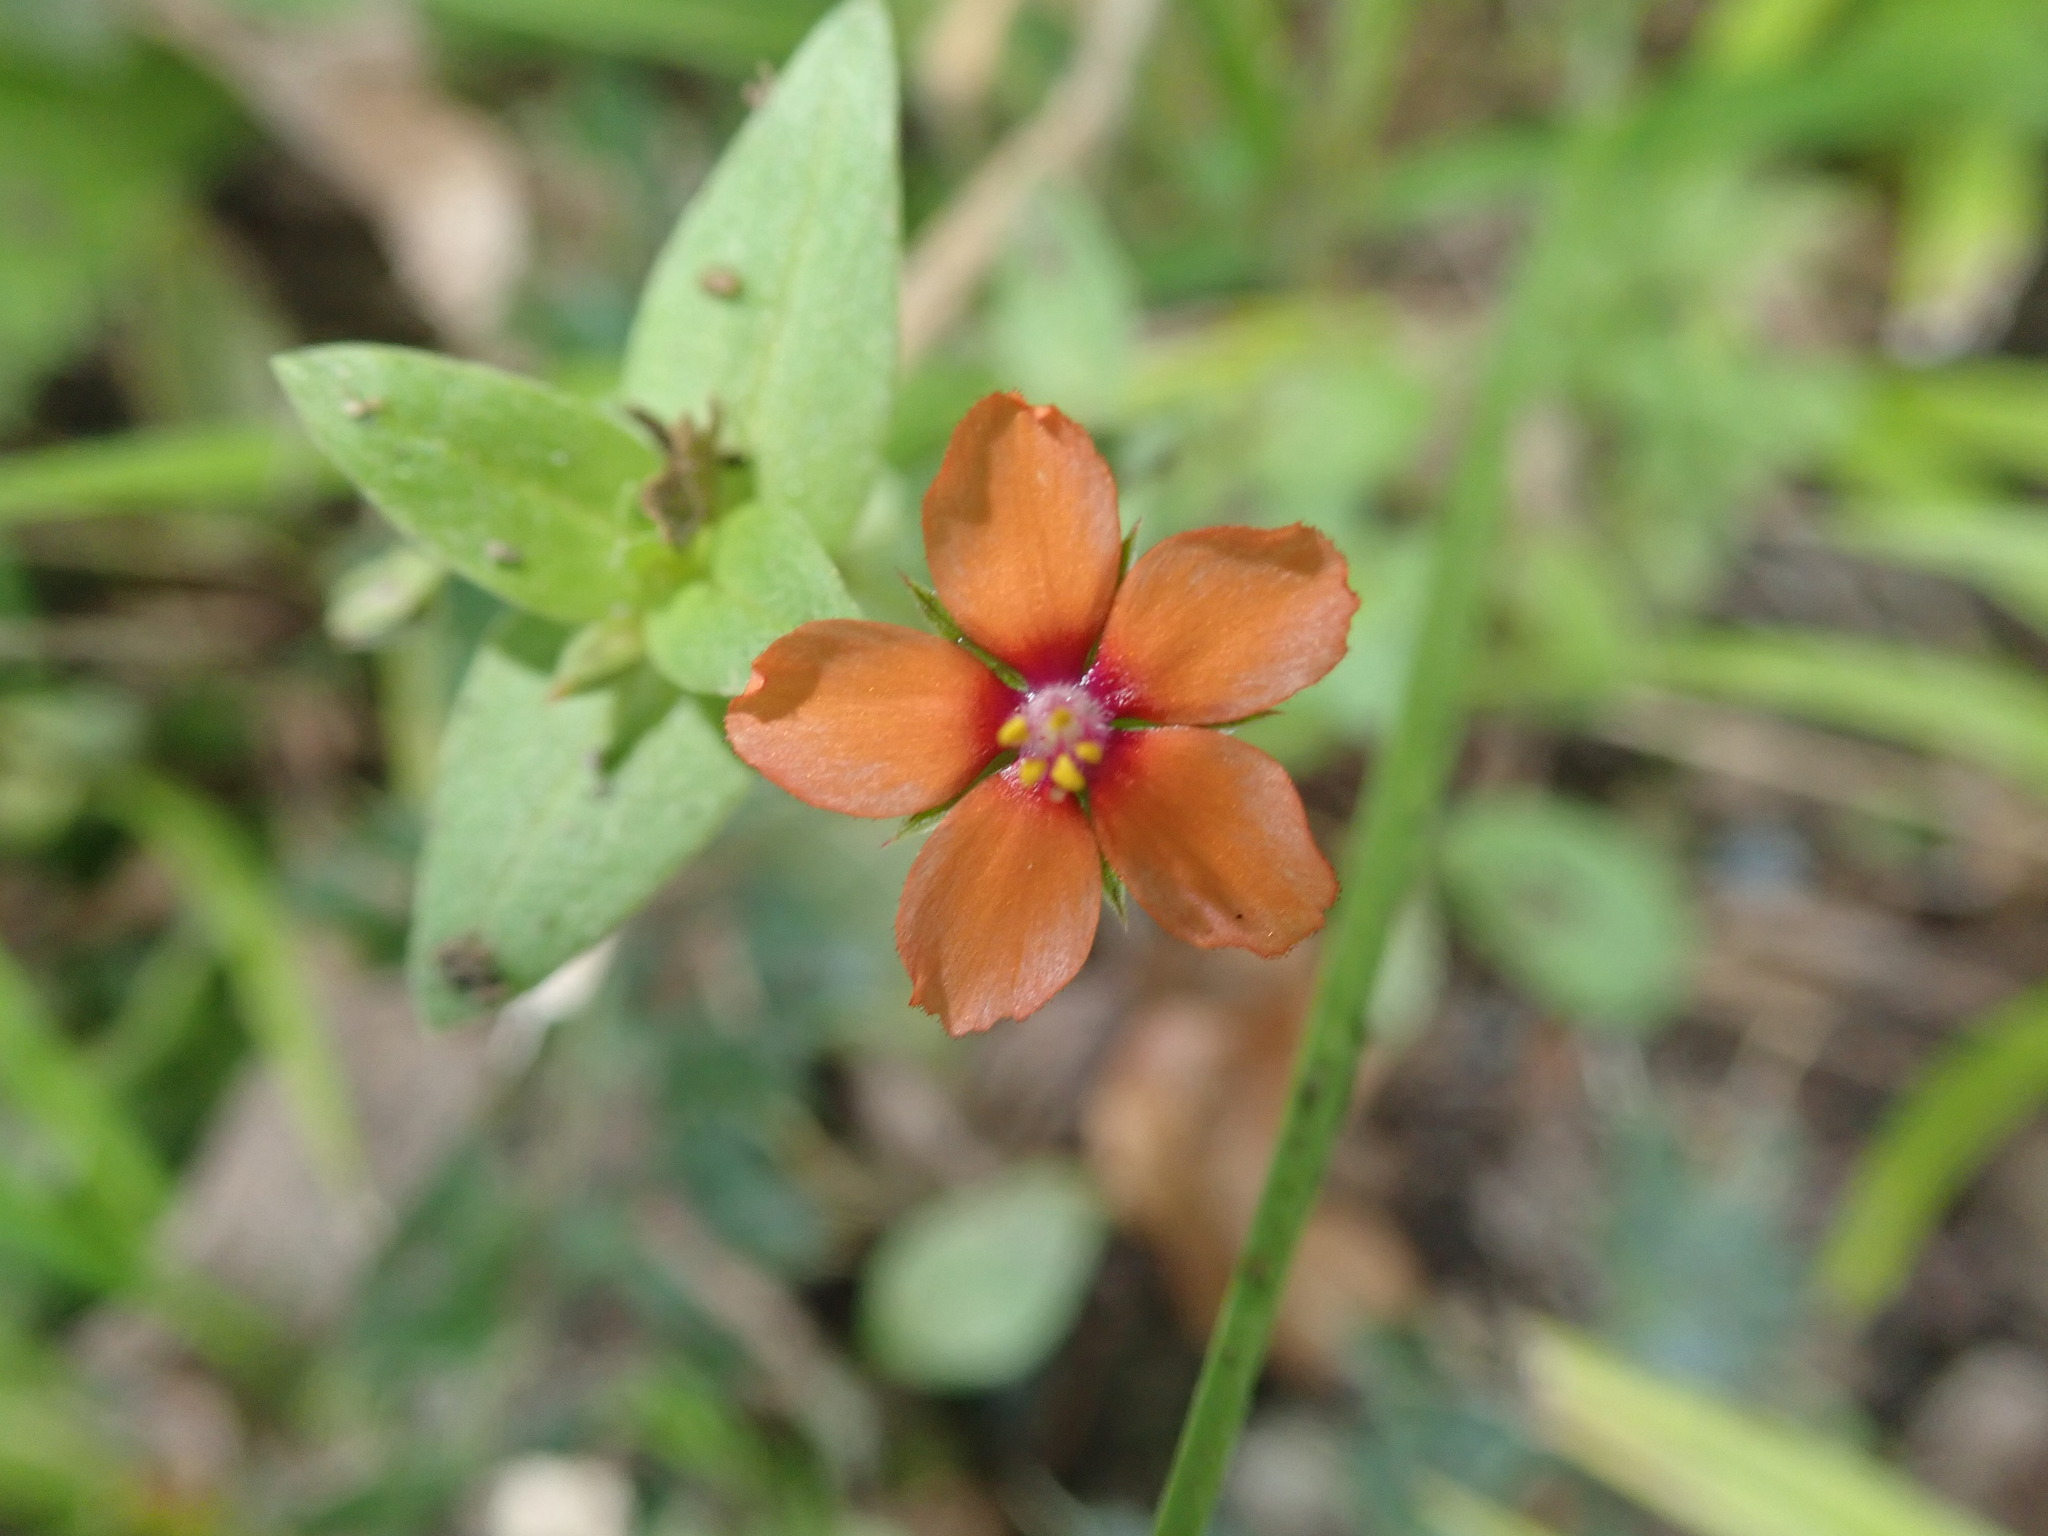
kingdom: Plantae
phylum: Tracheophyta
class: Magnoliopsida
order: Ericales
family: Primulaceae
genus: Lysimachia
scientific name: Lysimachia arvensis
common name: Scarlet pimpernel
